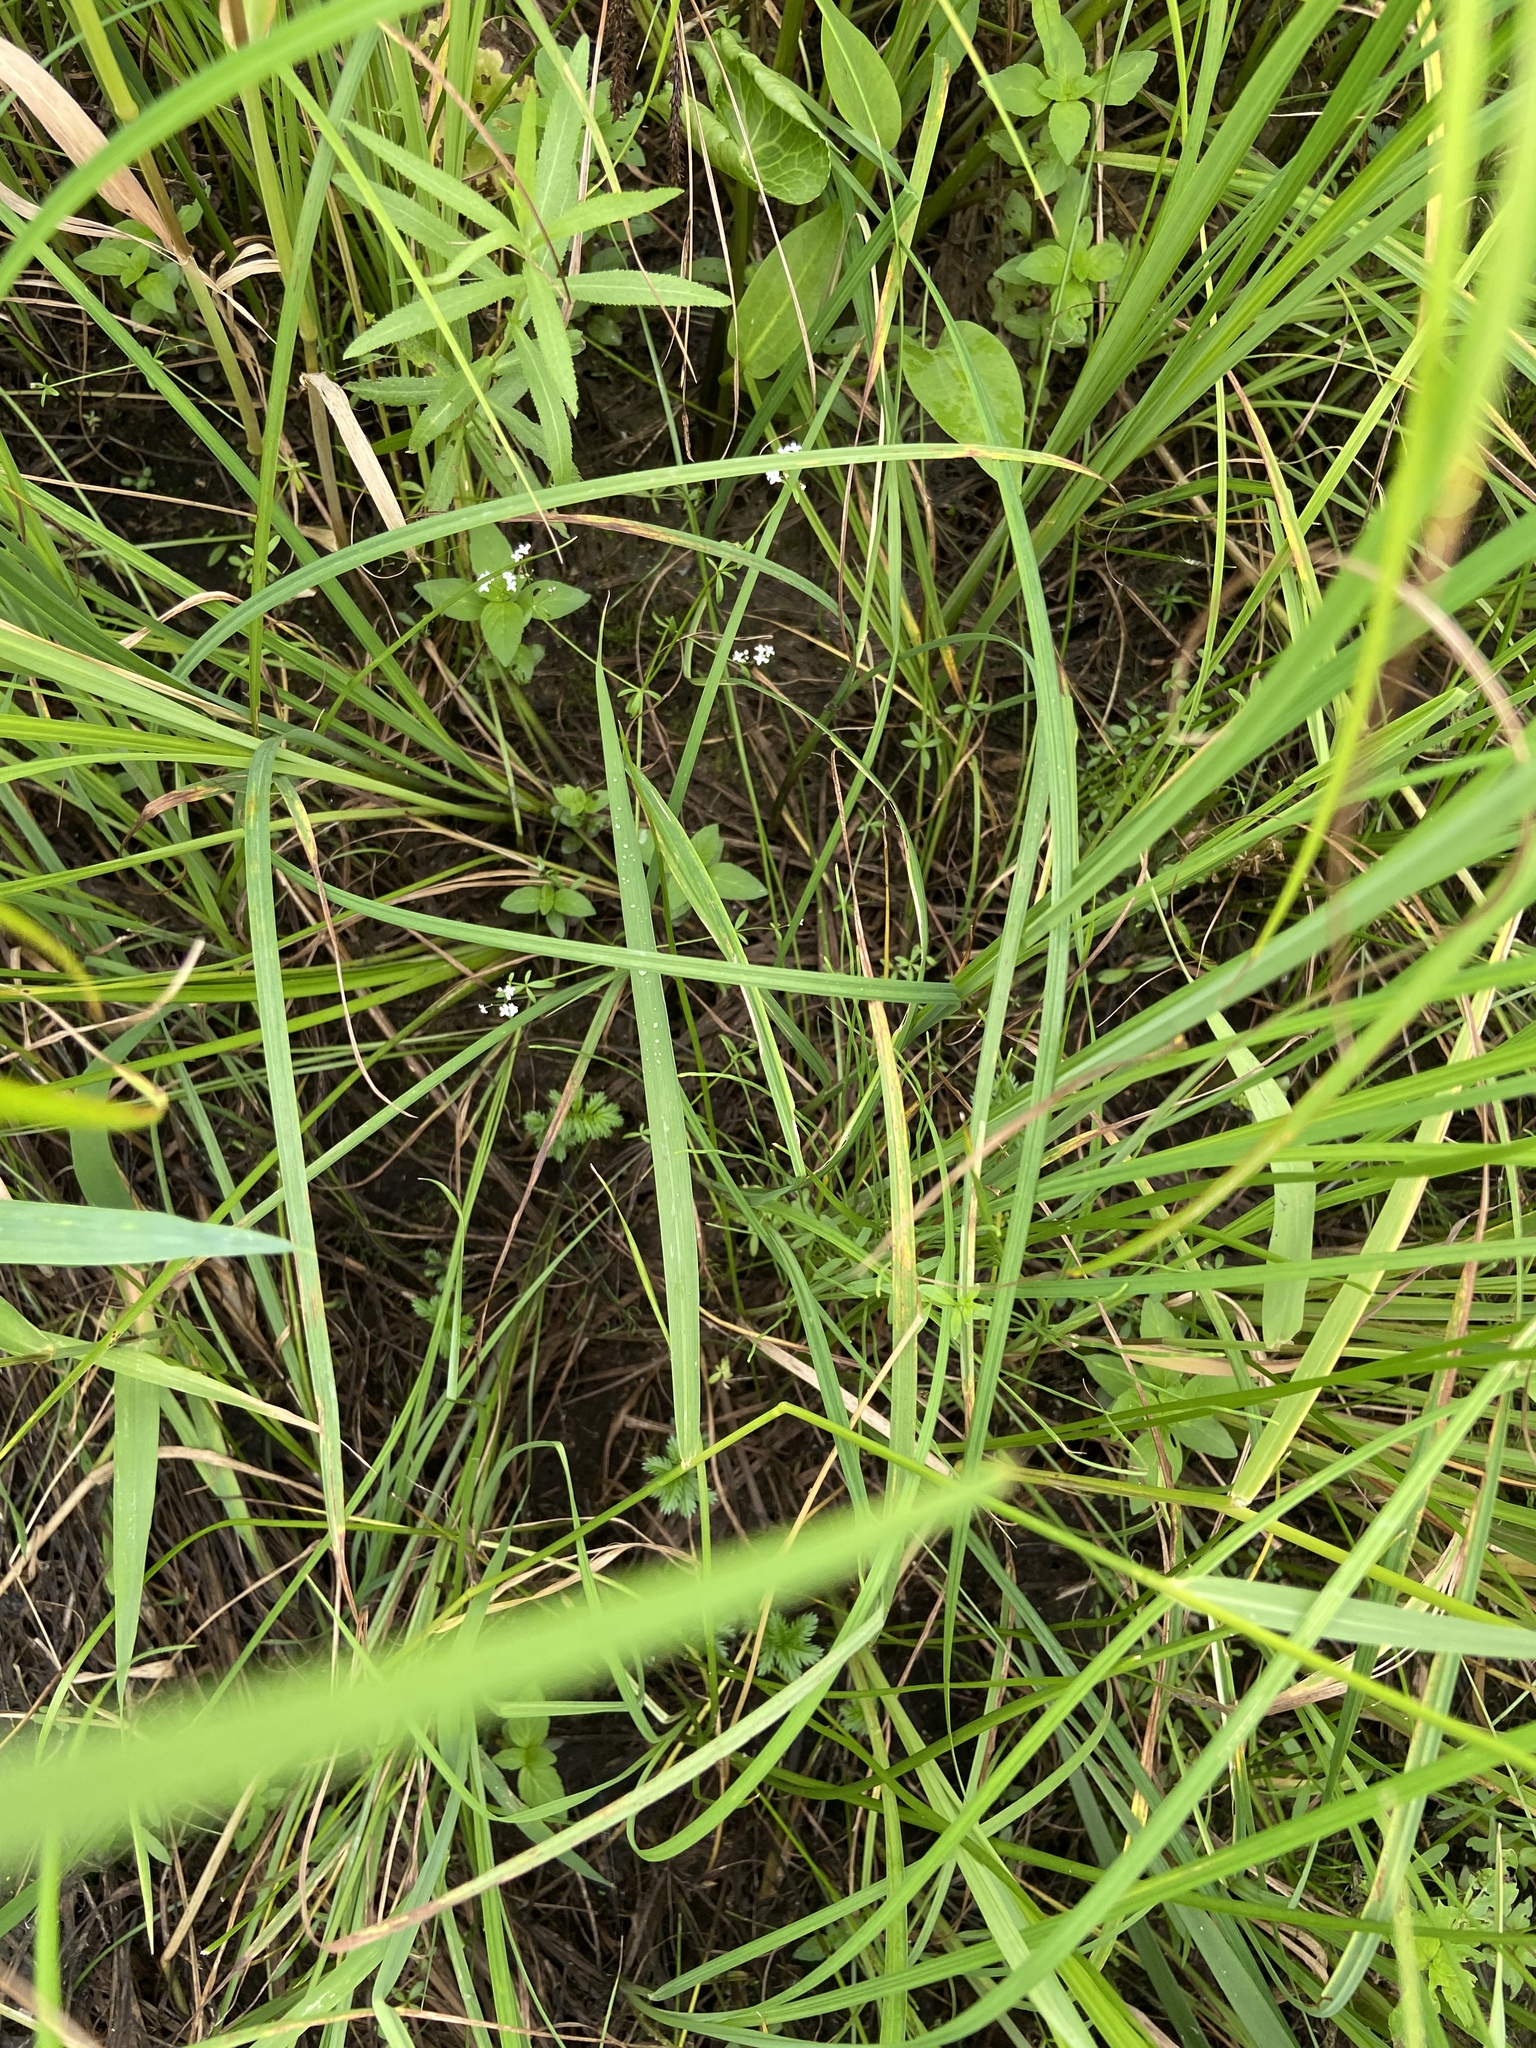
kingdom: Plantae
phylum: Tracheophyta
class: Magnoliopsida
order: Gentianales
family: Rubiaceae
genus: Galium
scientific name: Galium palustre
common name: Common marsh-bedstraw
